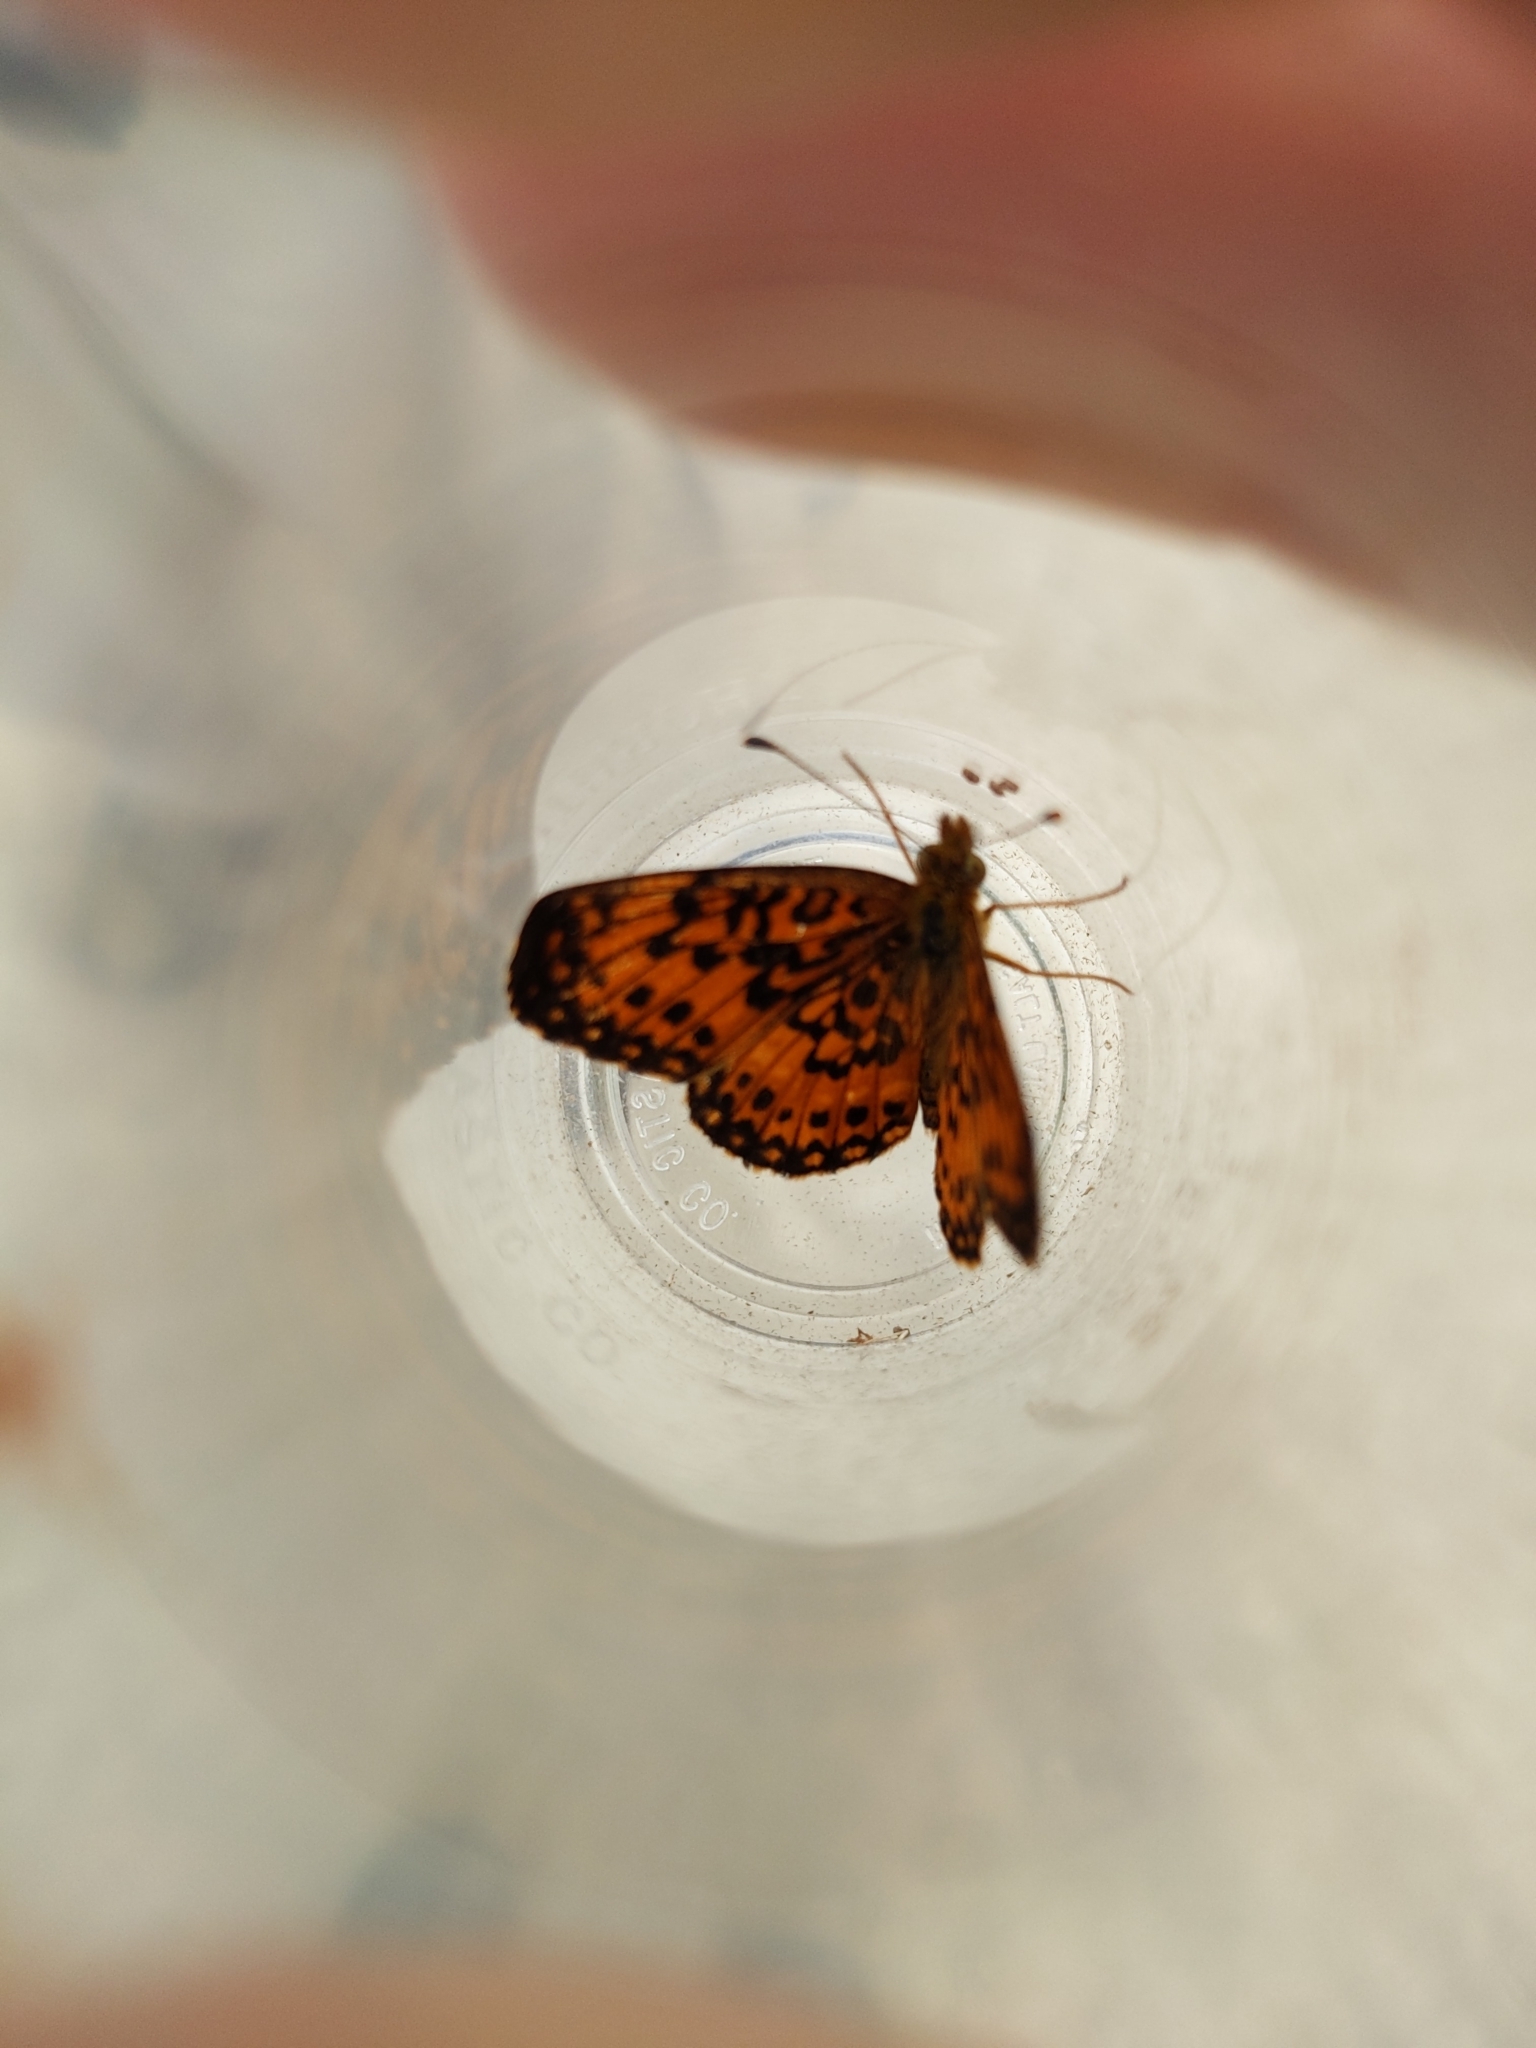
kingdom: Animalia
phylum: Arthropoda
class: Insecta
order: Lepidoptera
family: Nymphalidae
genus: Boloria
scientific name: Boloria
